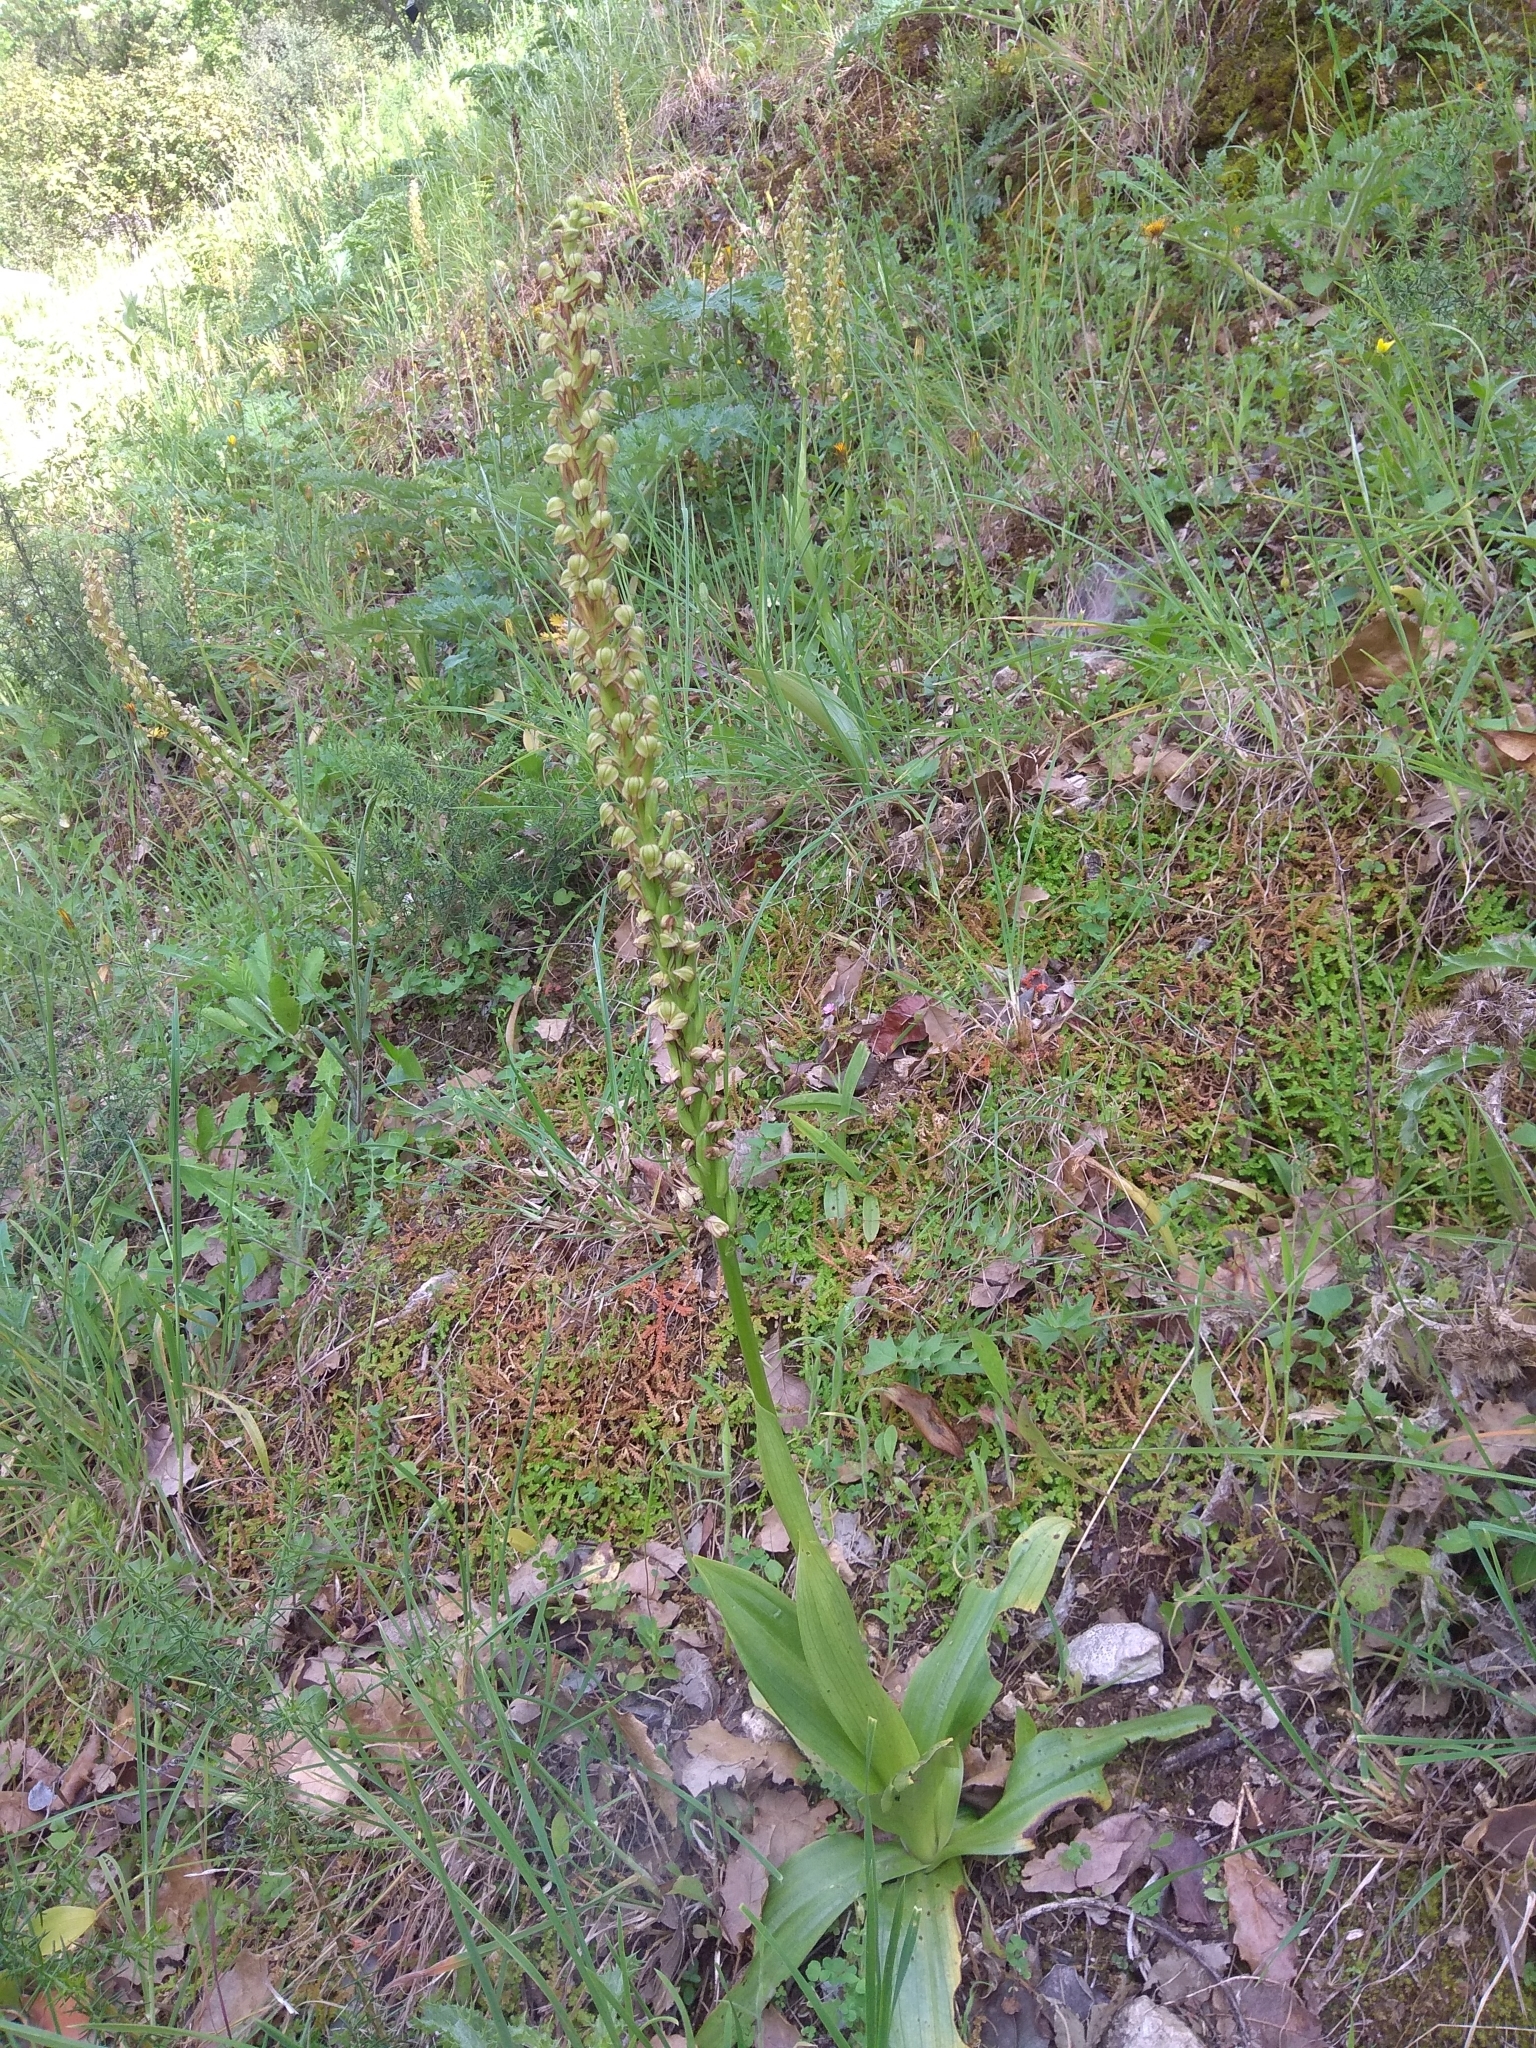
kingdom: Plantae
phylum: Tracheophyta
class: Liliopsida
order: Asparagales
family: Orchidaceae
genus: Orchis
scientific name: Orchis anthropophora
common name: Man orchid
